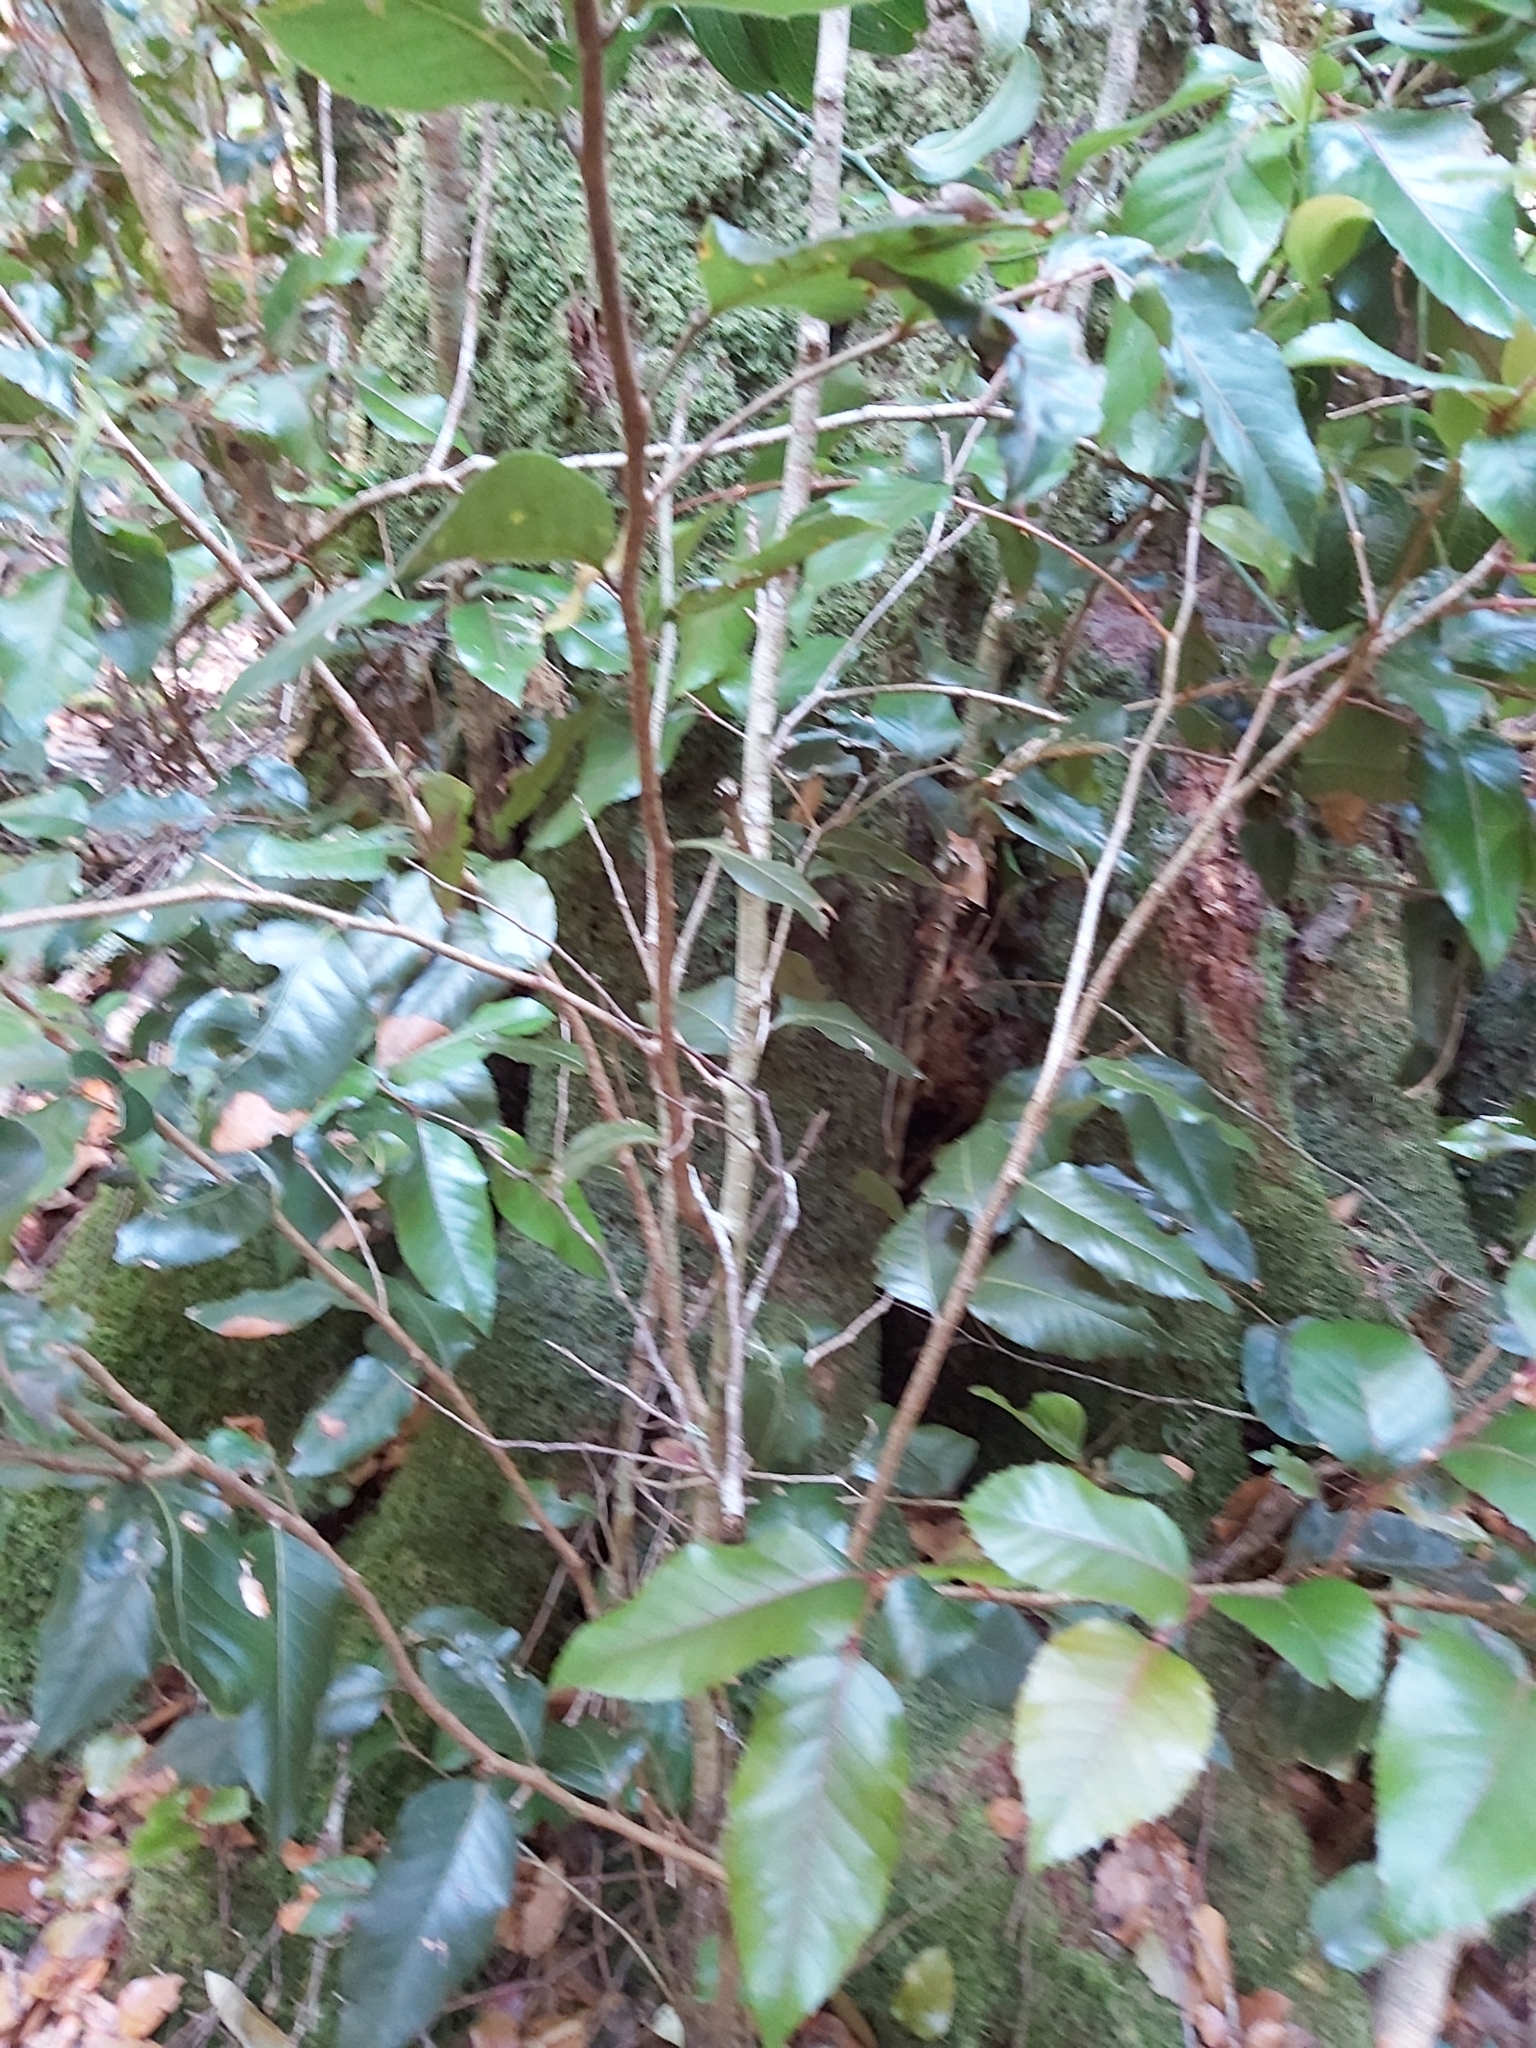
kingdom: Plantae
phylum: Tracheophyta
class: Magnoliopsida
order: Fagales
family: Nothofagaceae
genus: Nothofagus
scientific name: Nothofagus moorei
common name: Antarctic beech
